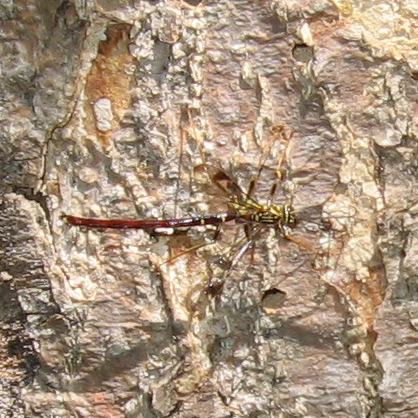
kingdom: Animalia
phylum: Arthropoda
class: Insecta
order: Hymenoptera
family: Ichneumonidae
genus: Megarhyssa
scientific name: Megarhyssa macrura
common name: Long-tailed giant ichneumonid wasp
